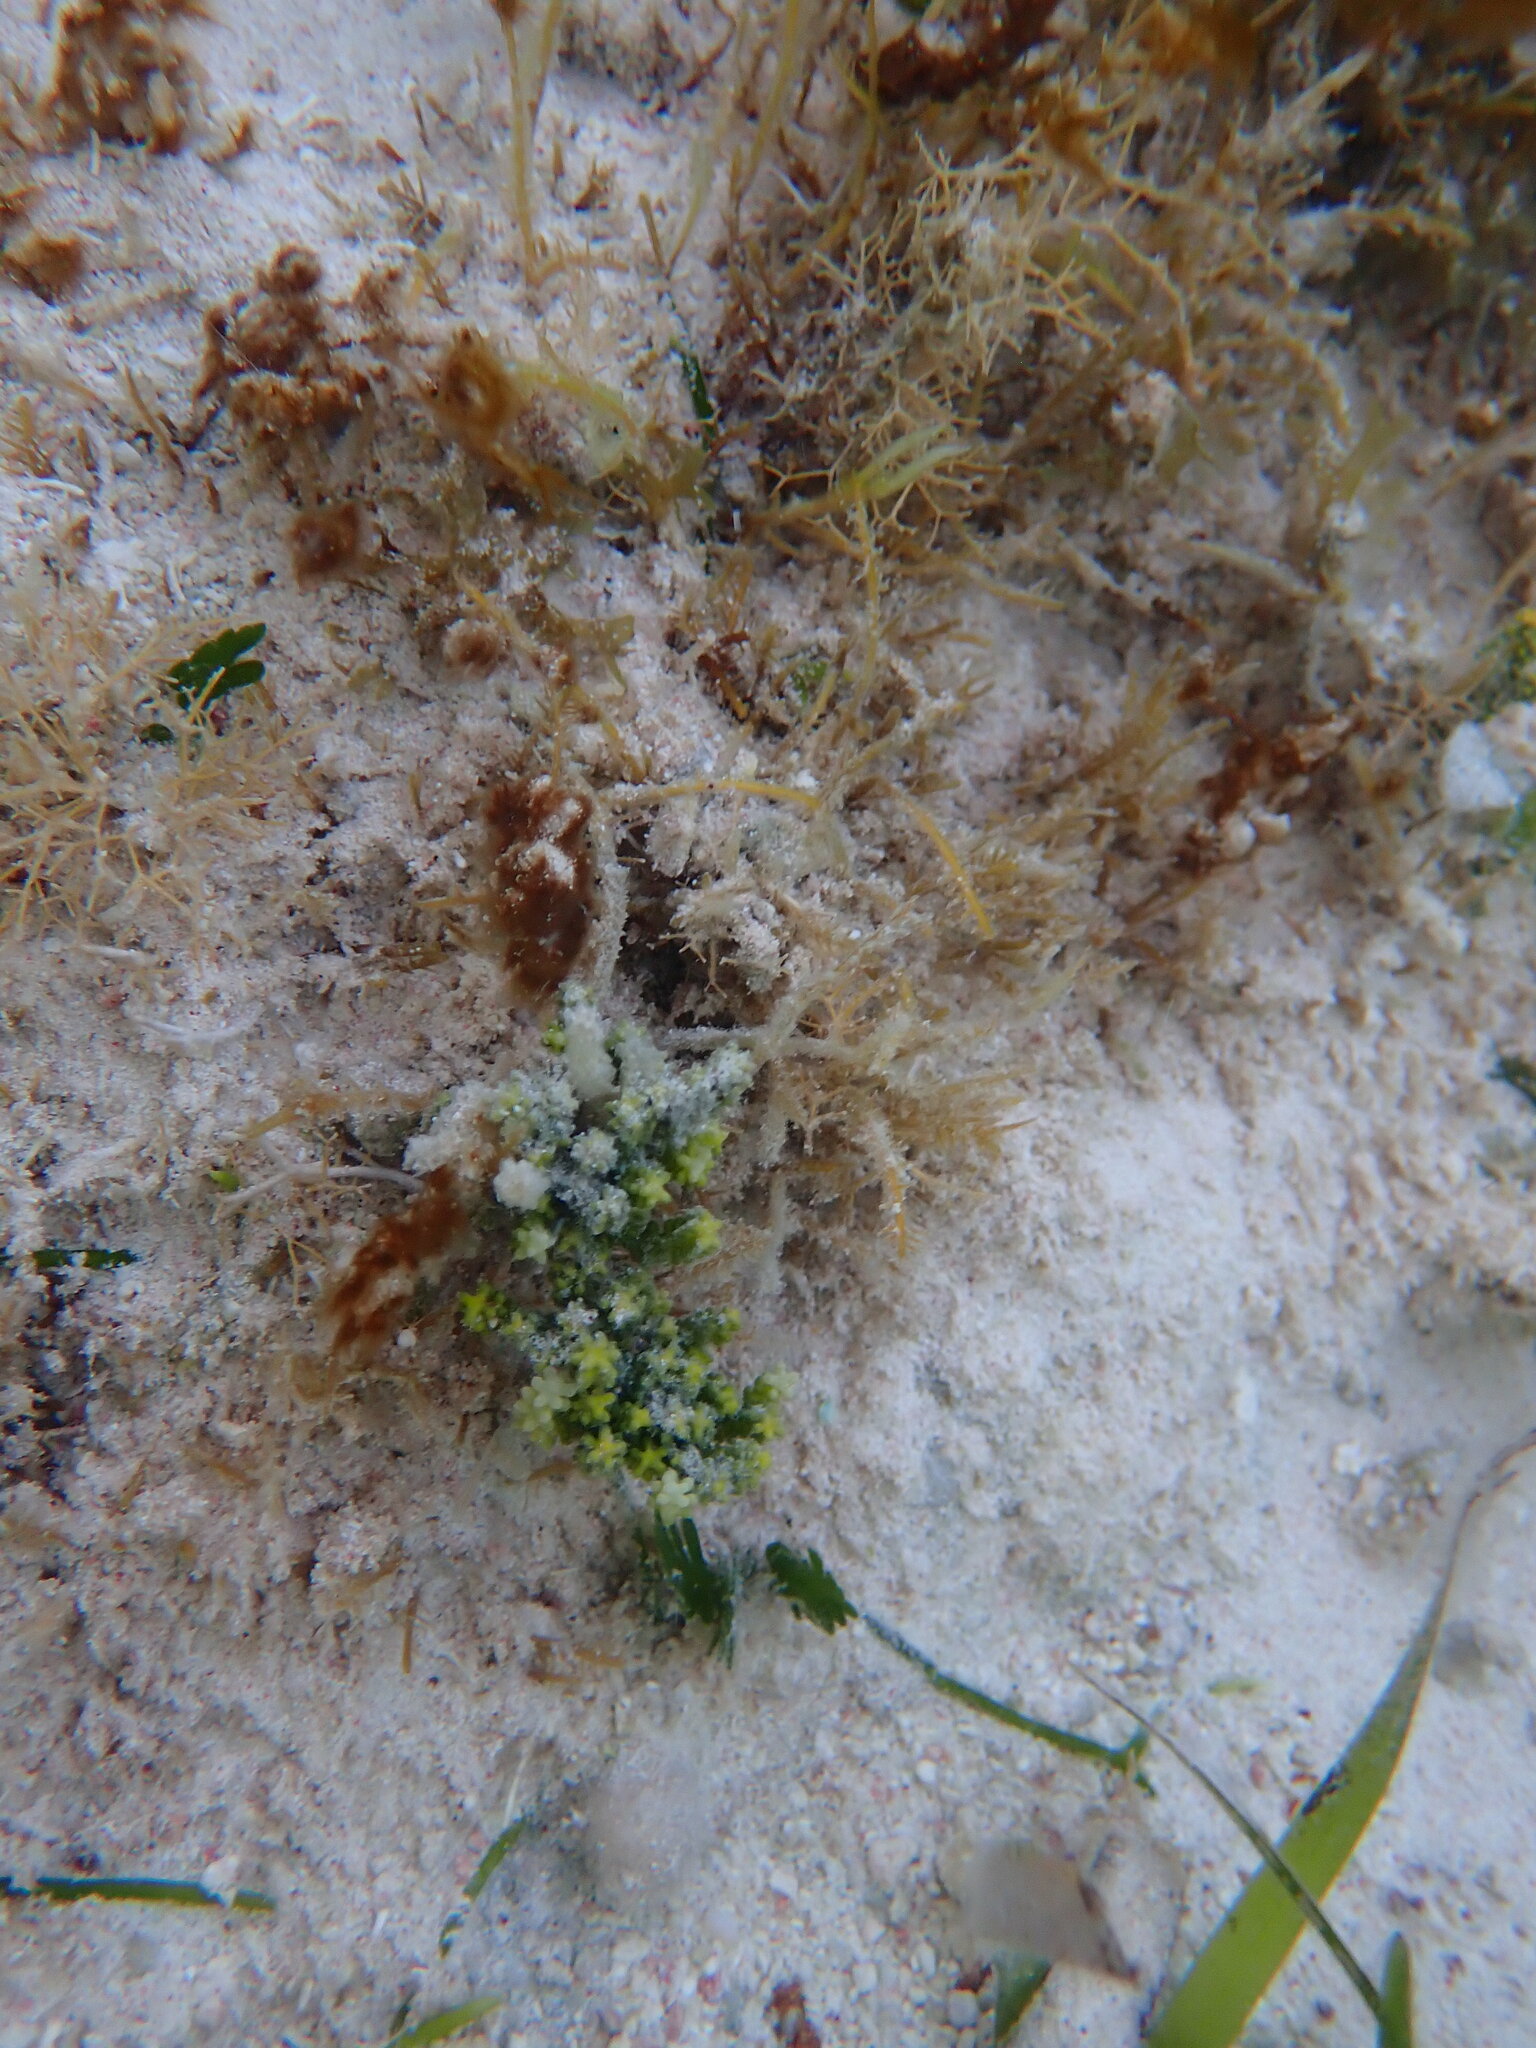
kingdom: Plantae
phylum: Chlorophyta
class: Ulvophyceae
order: Bryopsidales
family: Caulerpaceae
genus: Caulerpa
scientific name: Caulerpa cupressoides
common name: Cactus tree algae
